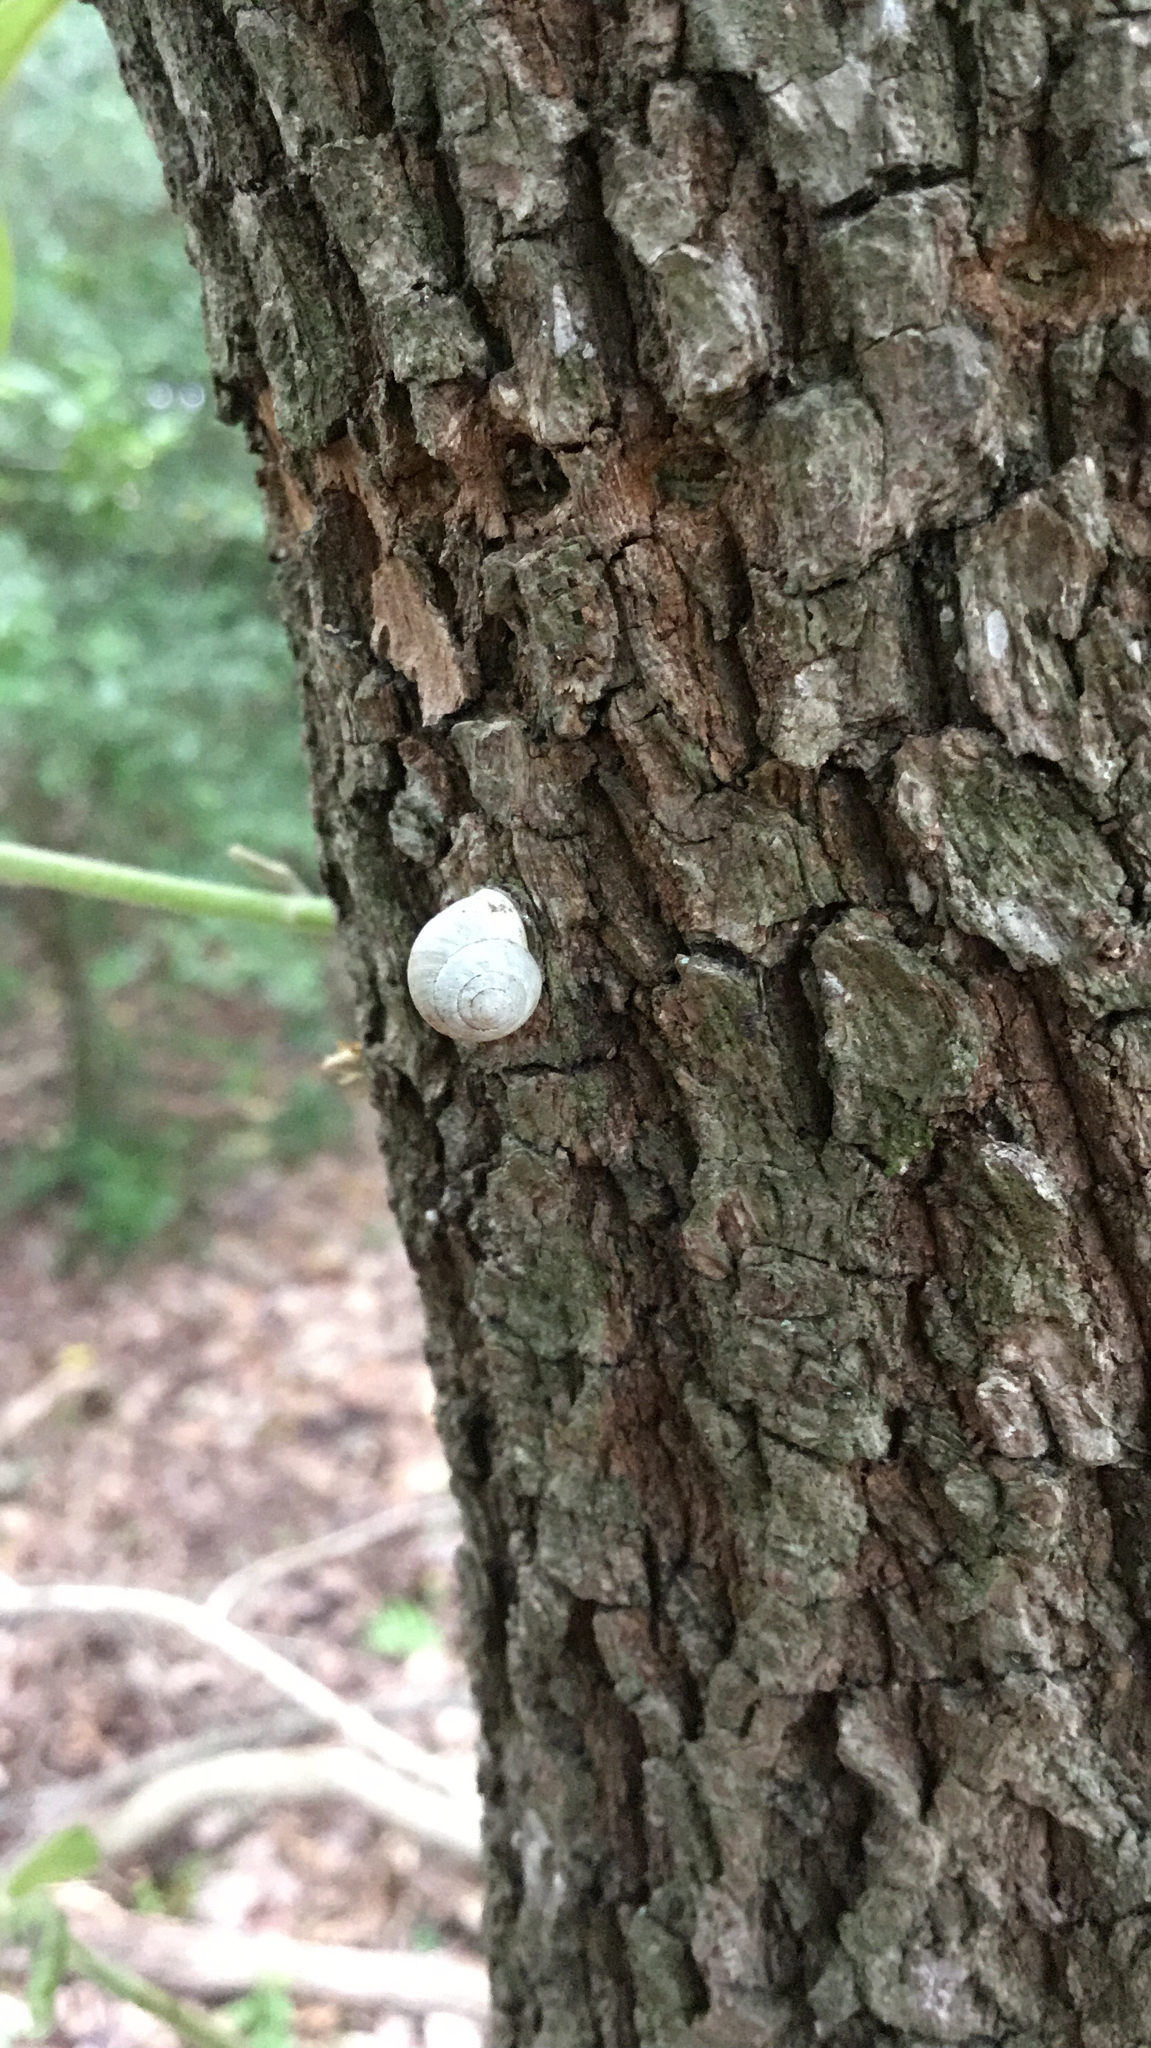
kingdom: Animalia
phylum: Mollusca
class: Gastropoda
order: Cycloneritida
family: Helicinidae
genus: Helicina
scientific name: Helicina orbiculata
